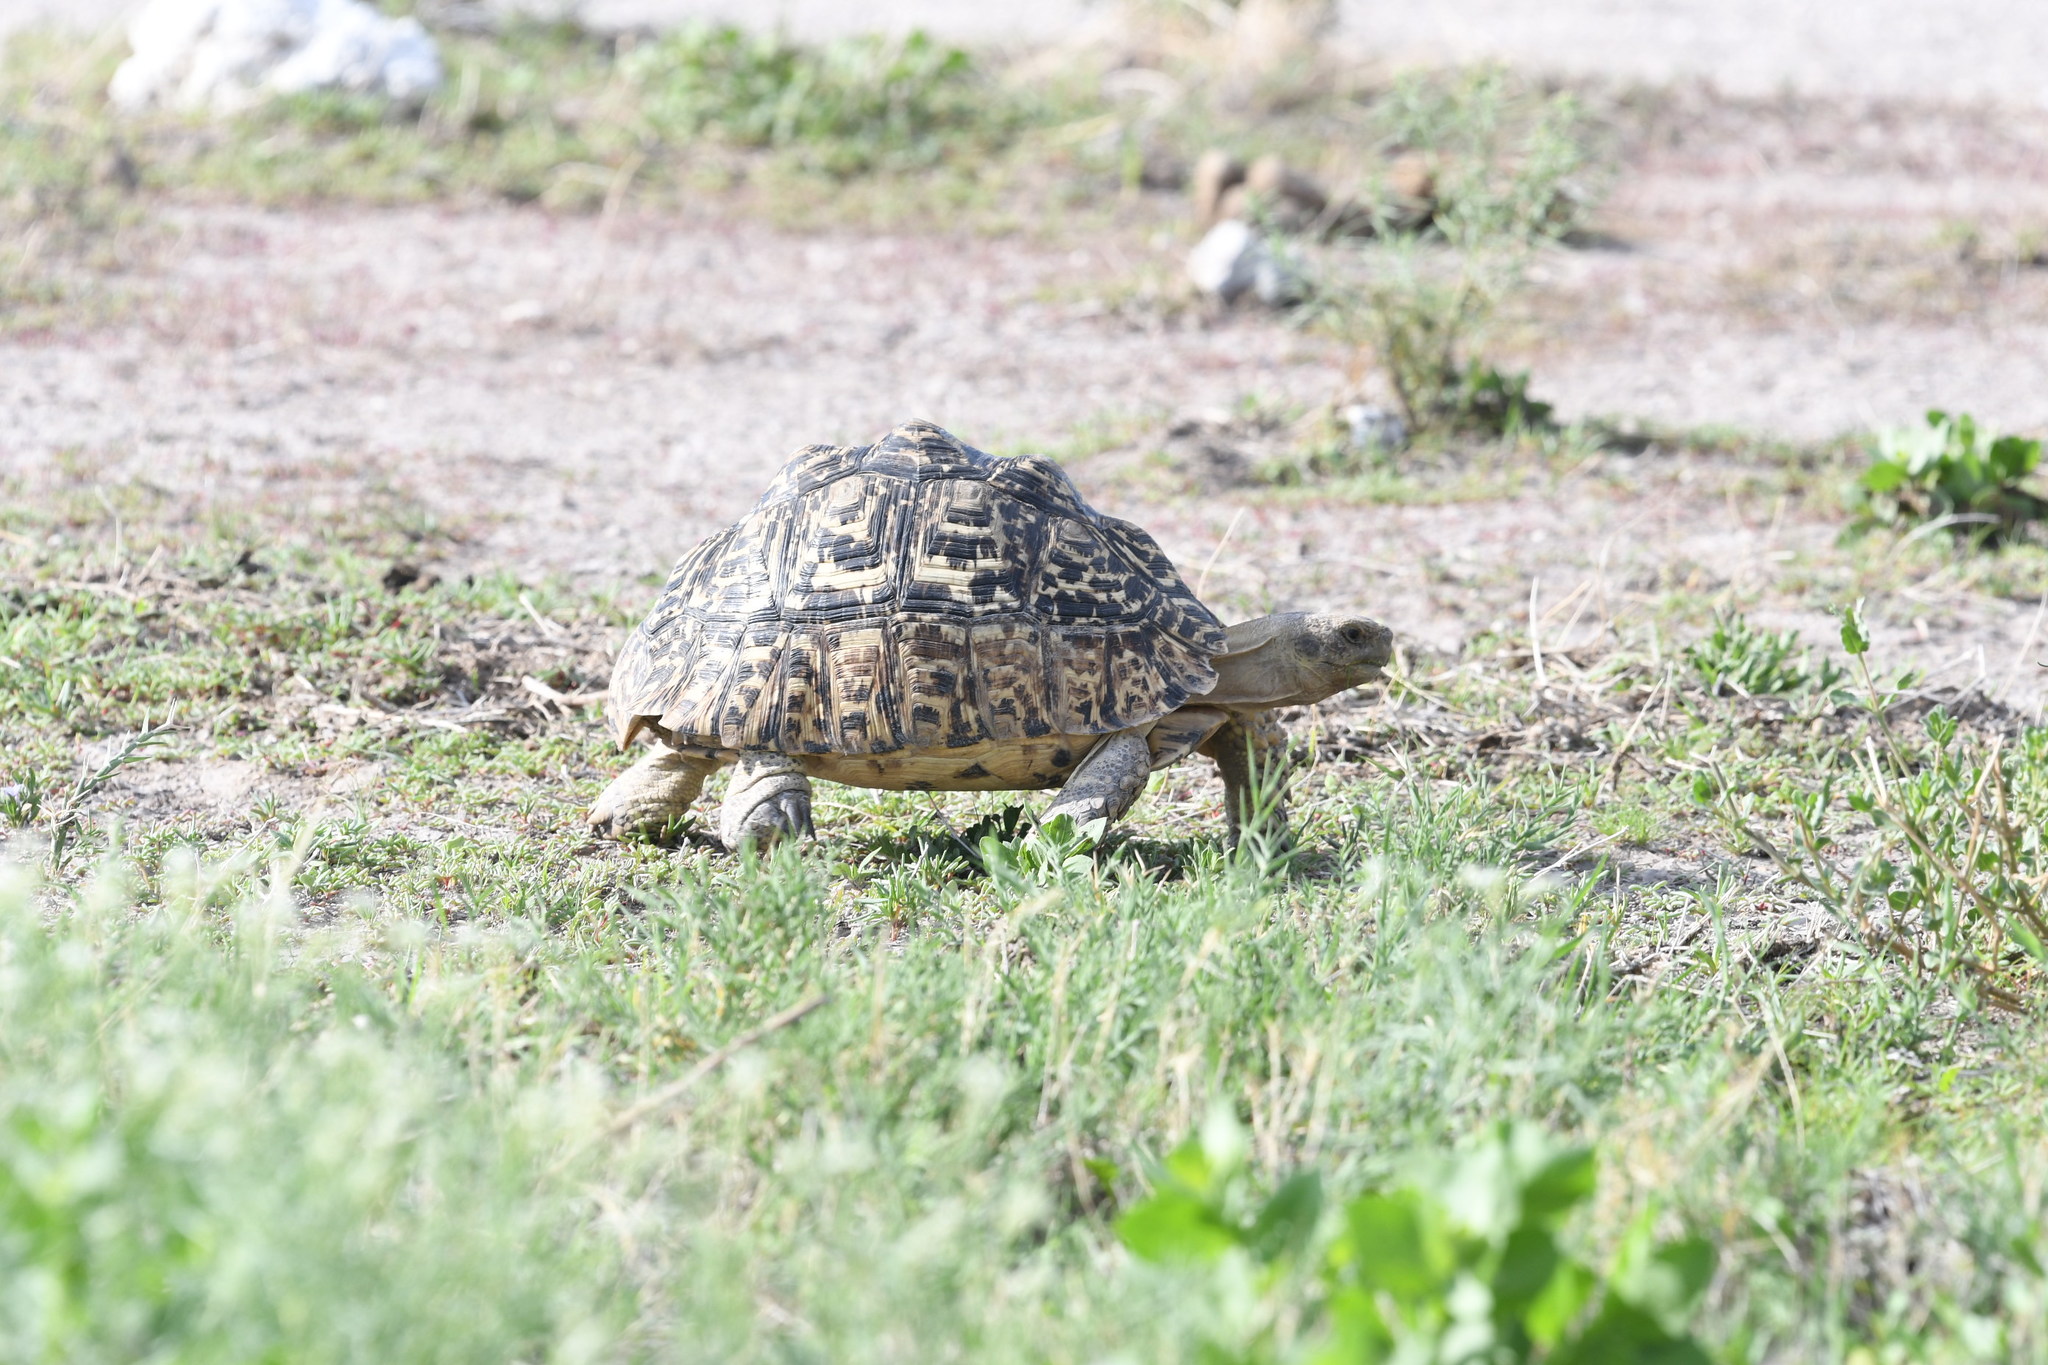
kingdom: Animalia
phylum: Chordata
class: Testudines
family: Testudinidae
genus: Stigmochelys
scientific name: Stigmochelys pardalis
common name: Leopard tortoise
